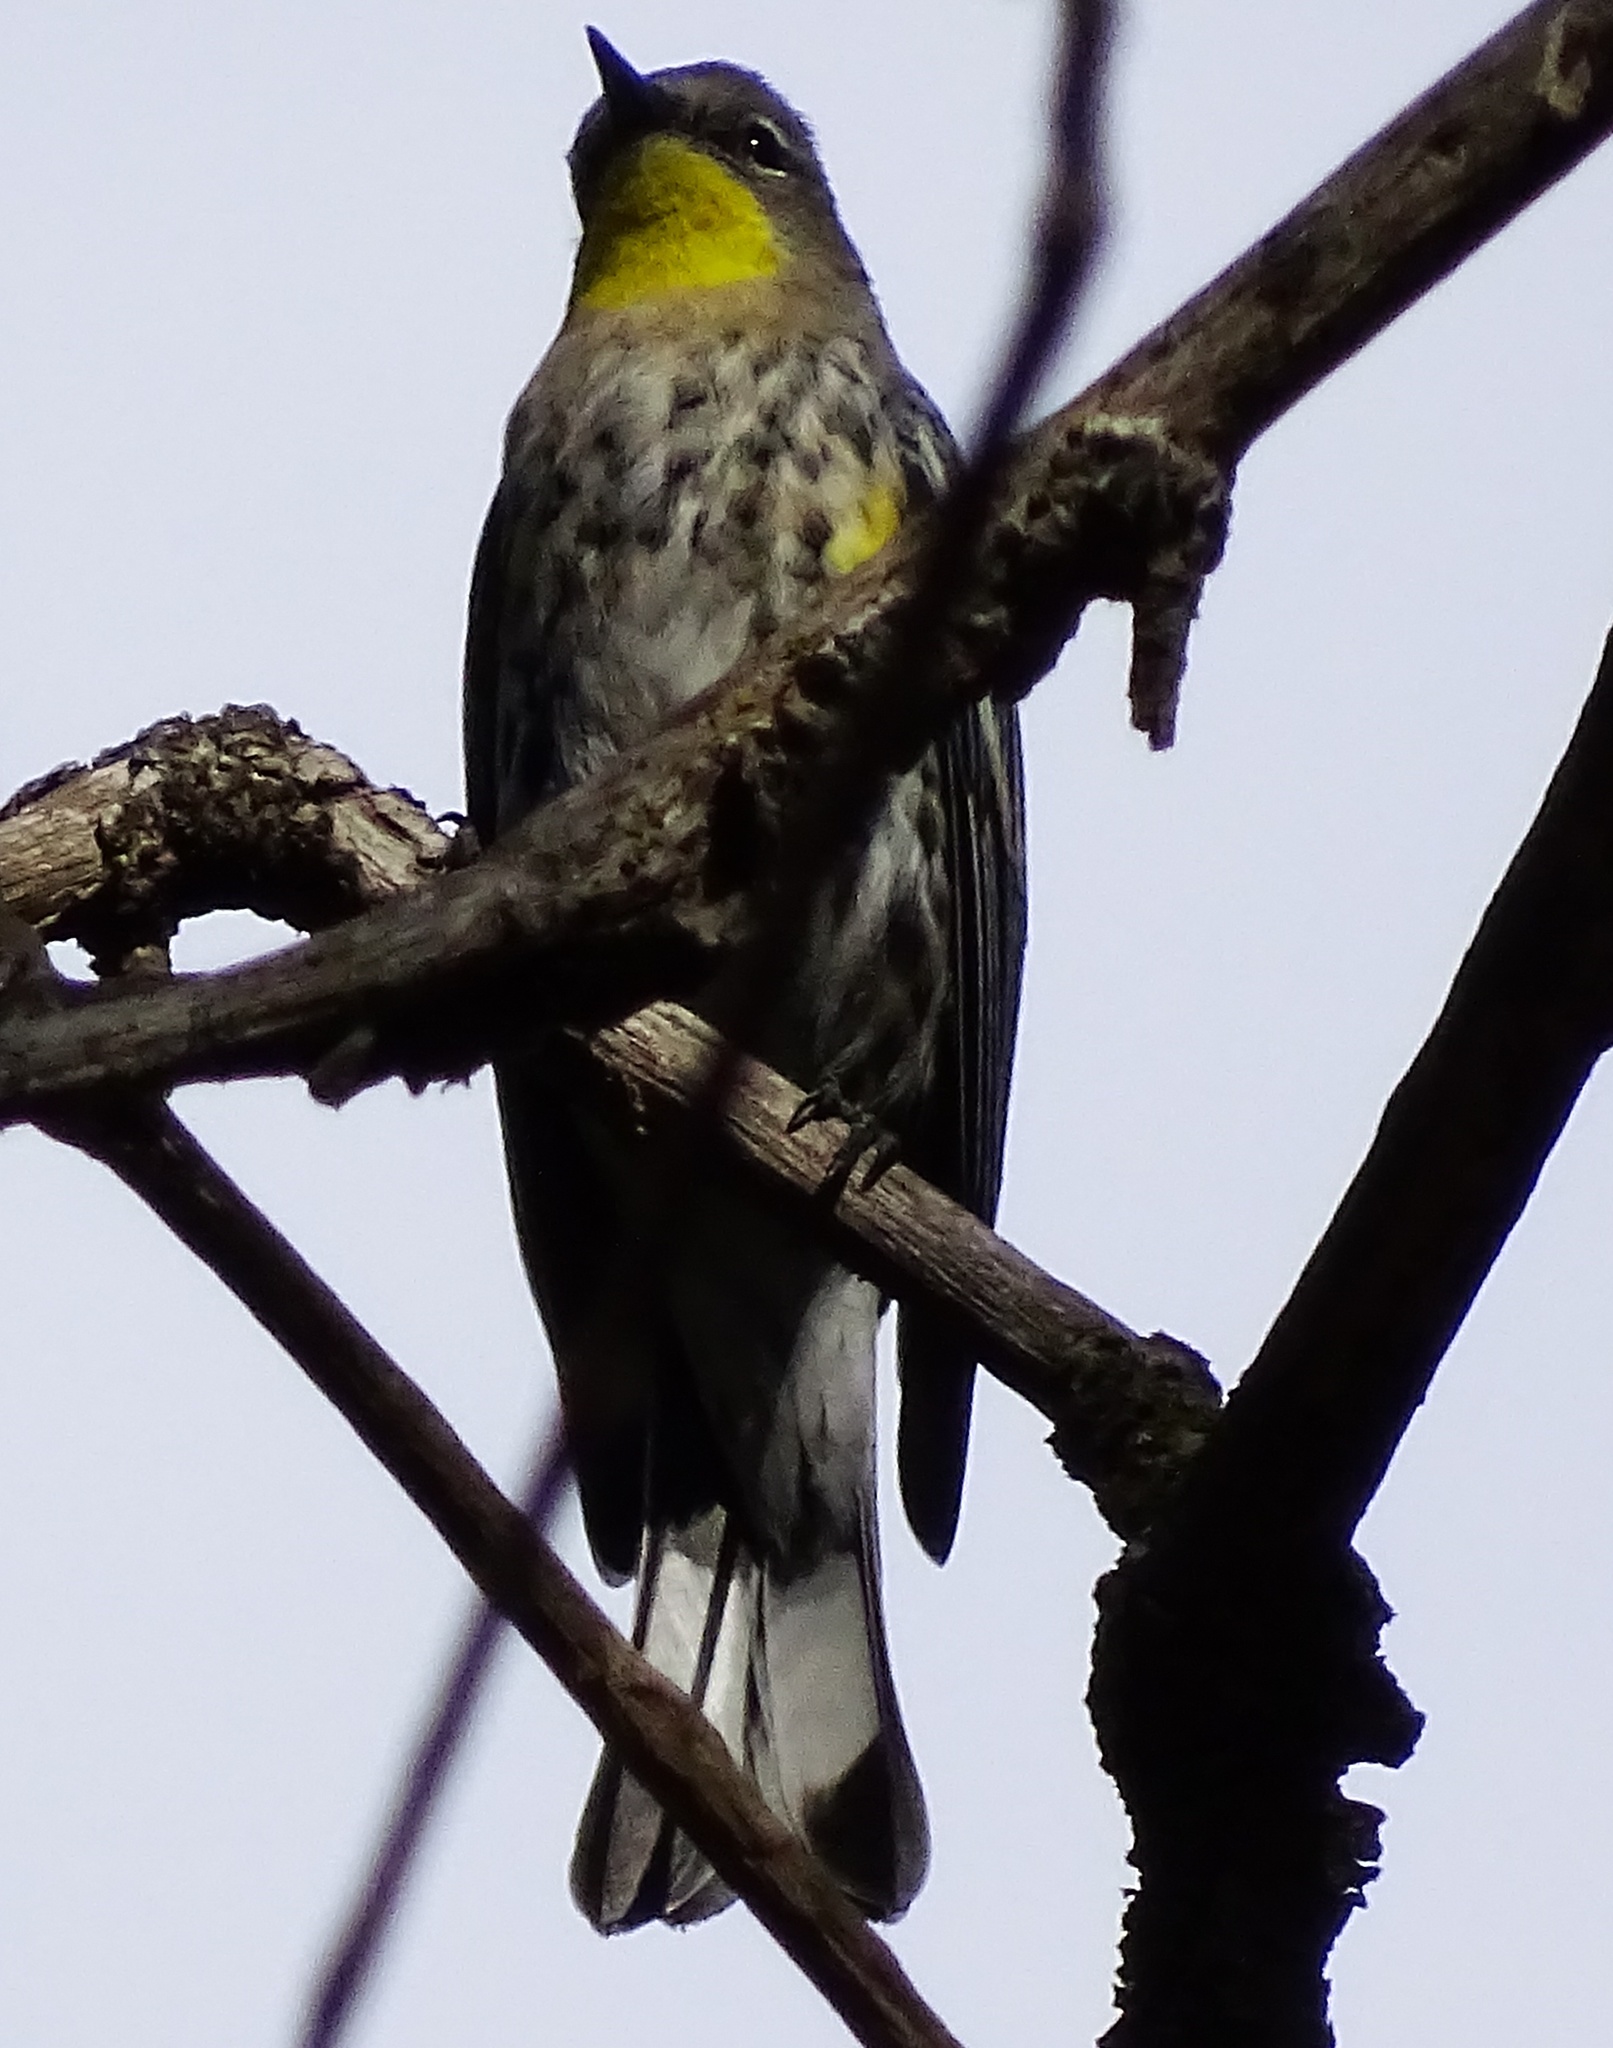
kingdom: Animalia
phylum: Chordata
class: Aves
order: Passeriformes
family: Parulidae
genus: Setophaga
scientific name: Setophaga auduboni
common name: Audubon's warbler
